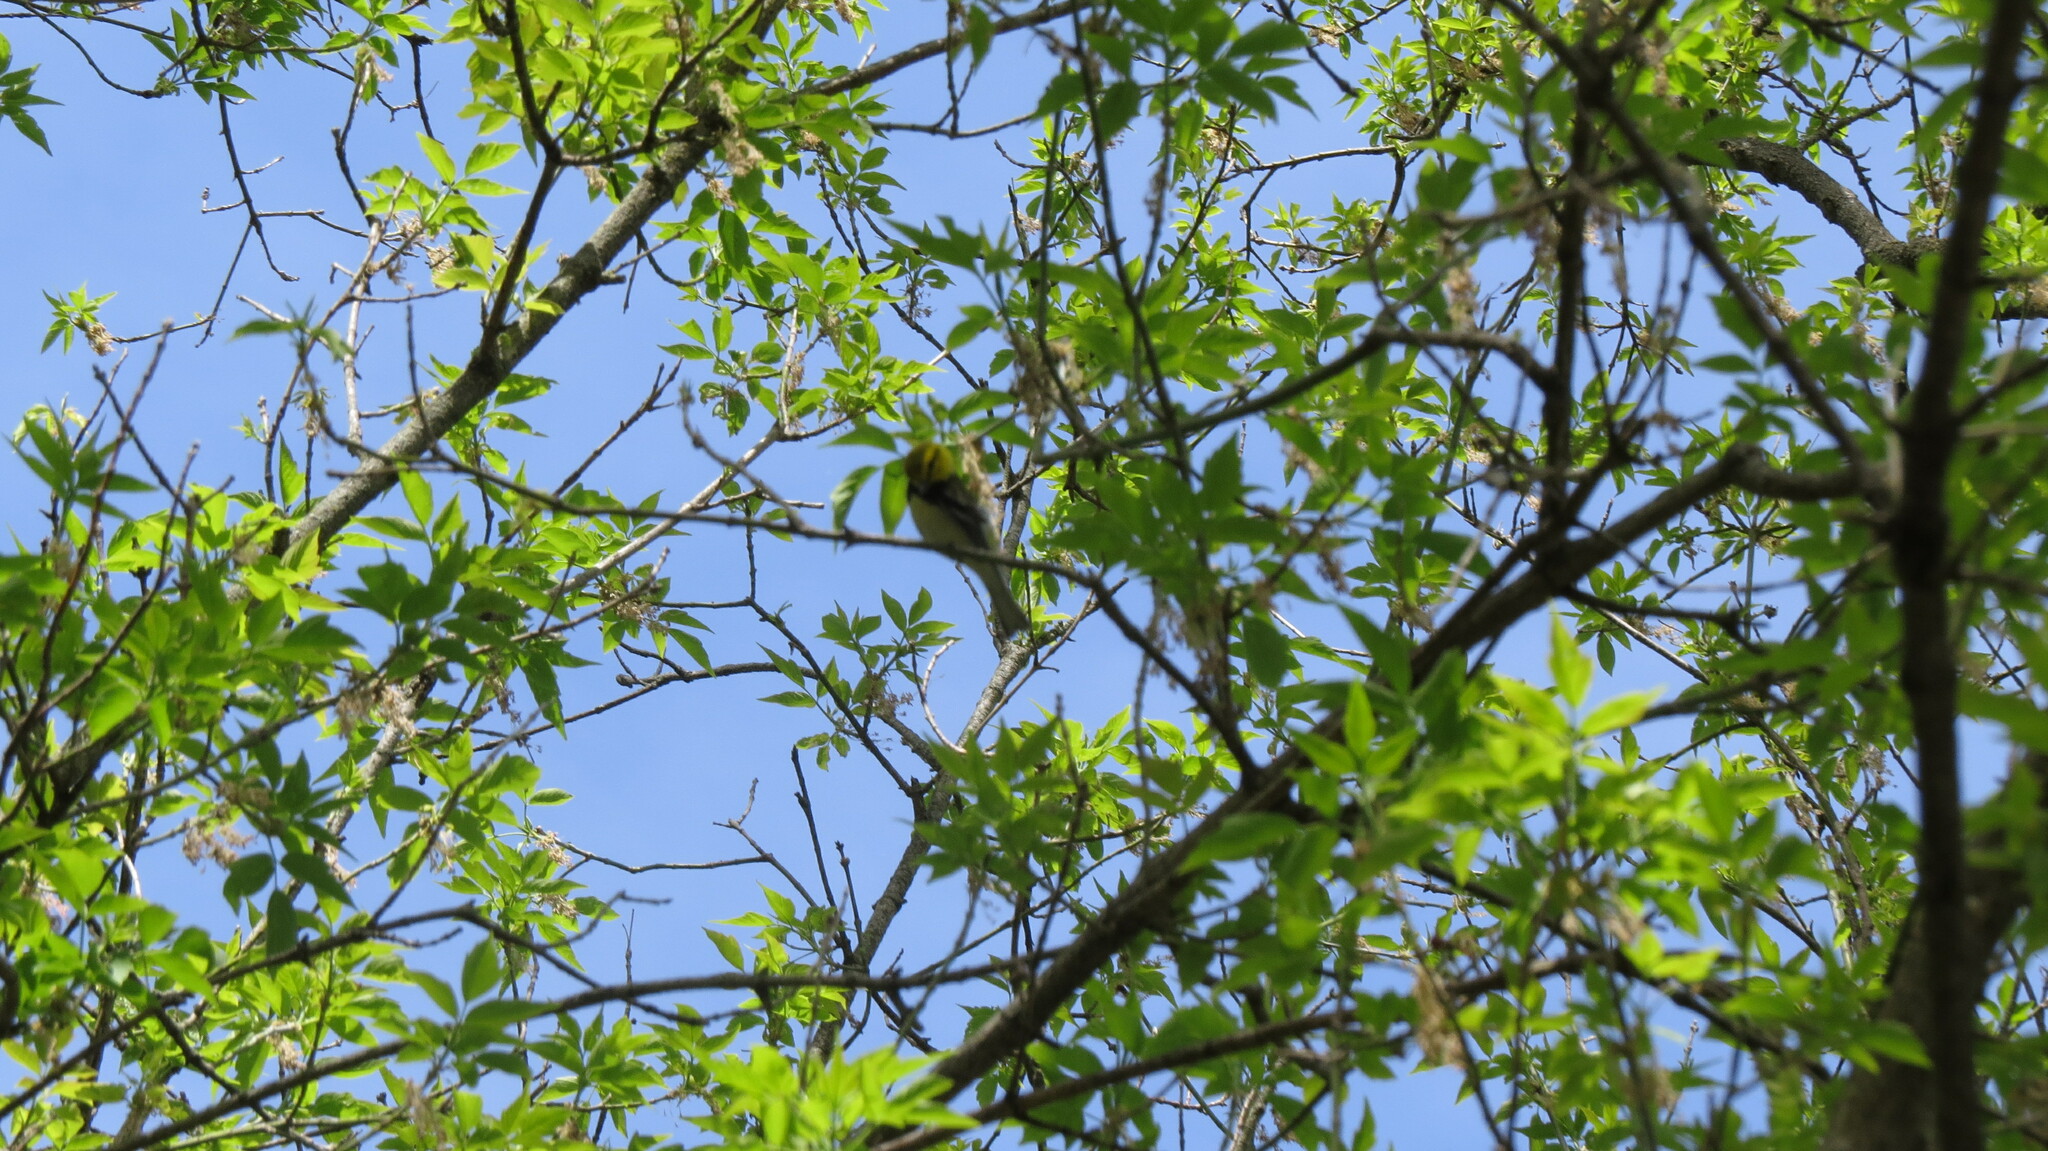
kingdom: Animalia
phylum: Chordata
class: Aves
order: Passeriformes
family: Parulidae
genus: Setophaga
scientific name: Setophaga virens
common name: Black-throated green warbler
